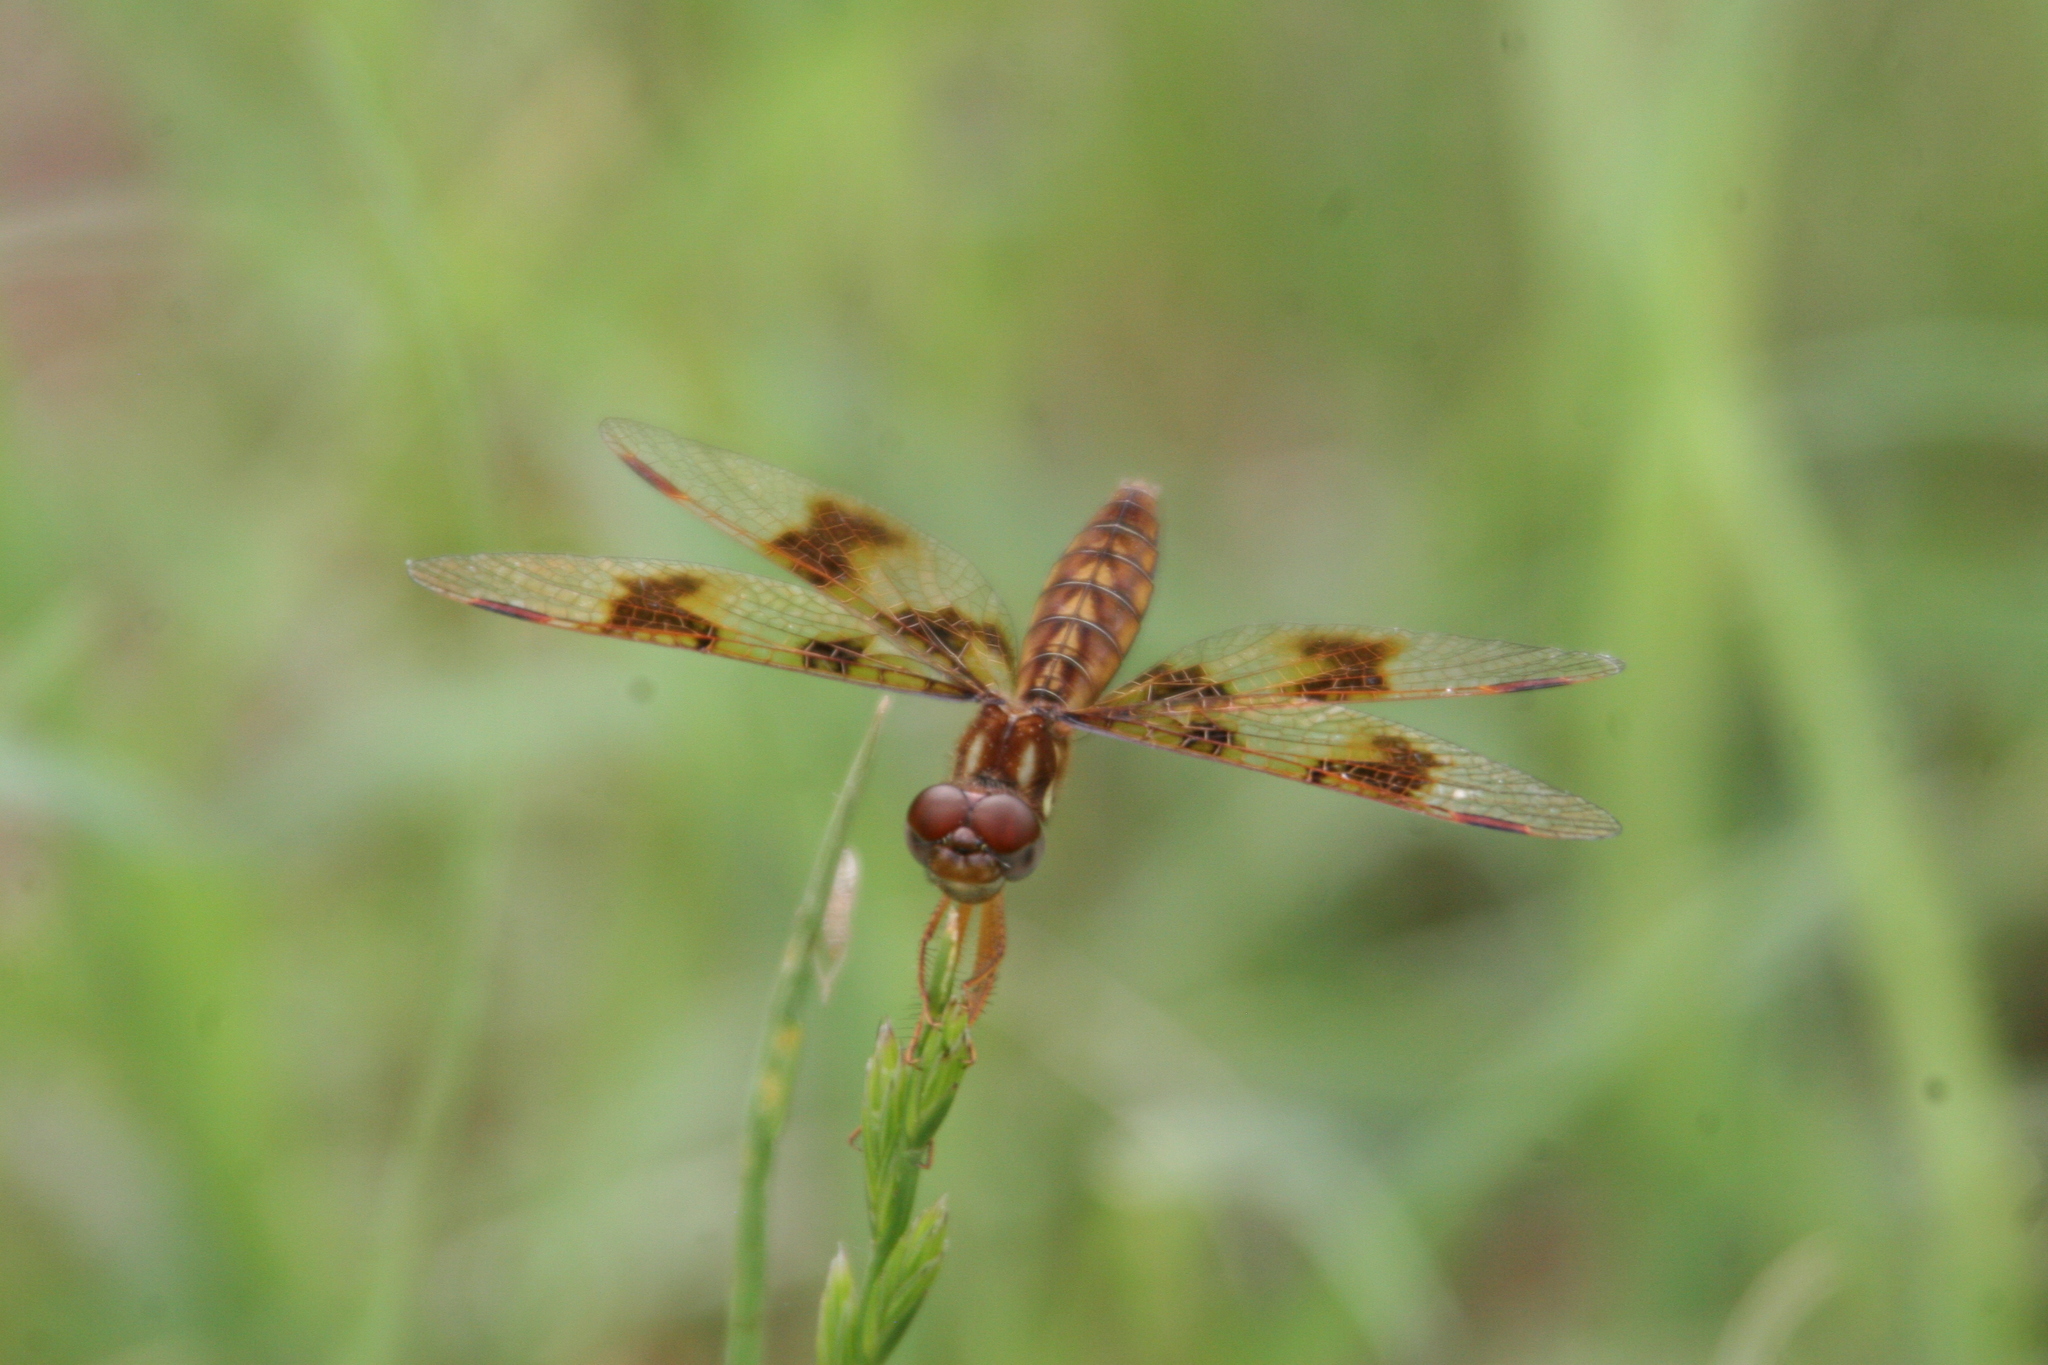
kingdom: Animalia
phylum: Arthropoda
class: Insecta
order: Odonata
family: Libellulidae
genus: Perithemis
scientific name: Perithemis tenera
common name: Eastern amberwing
